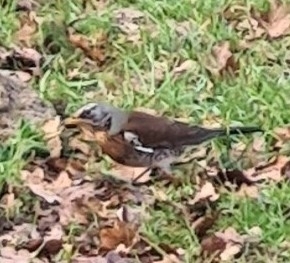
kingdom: Animalia
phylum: Chordata
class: Aves
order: Passeriformes
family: Turdidae
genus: Turdus
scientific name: Turdus pilaris
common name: Fieldfare
